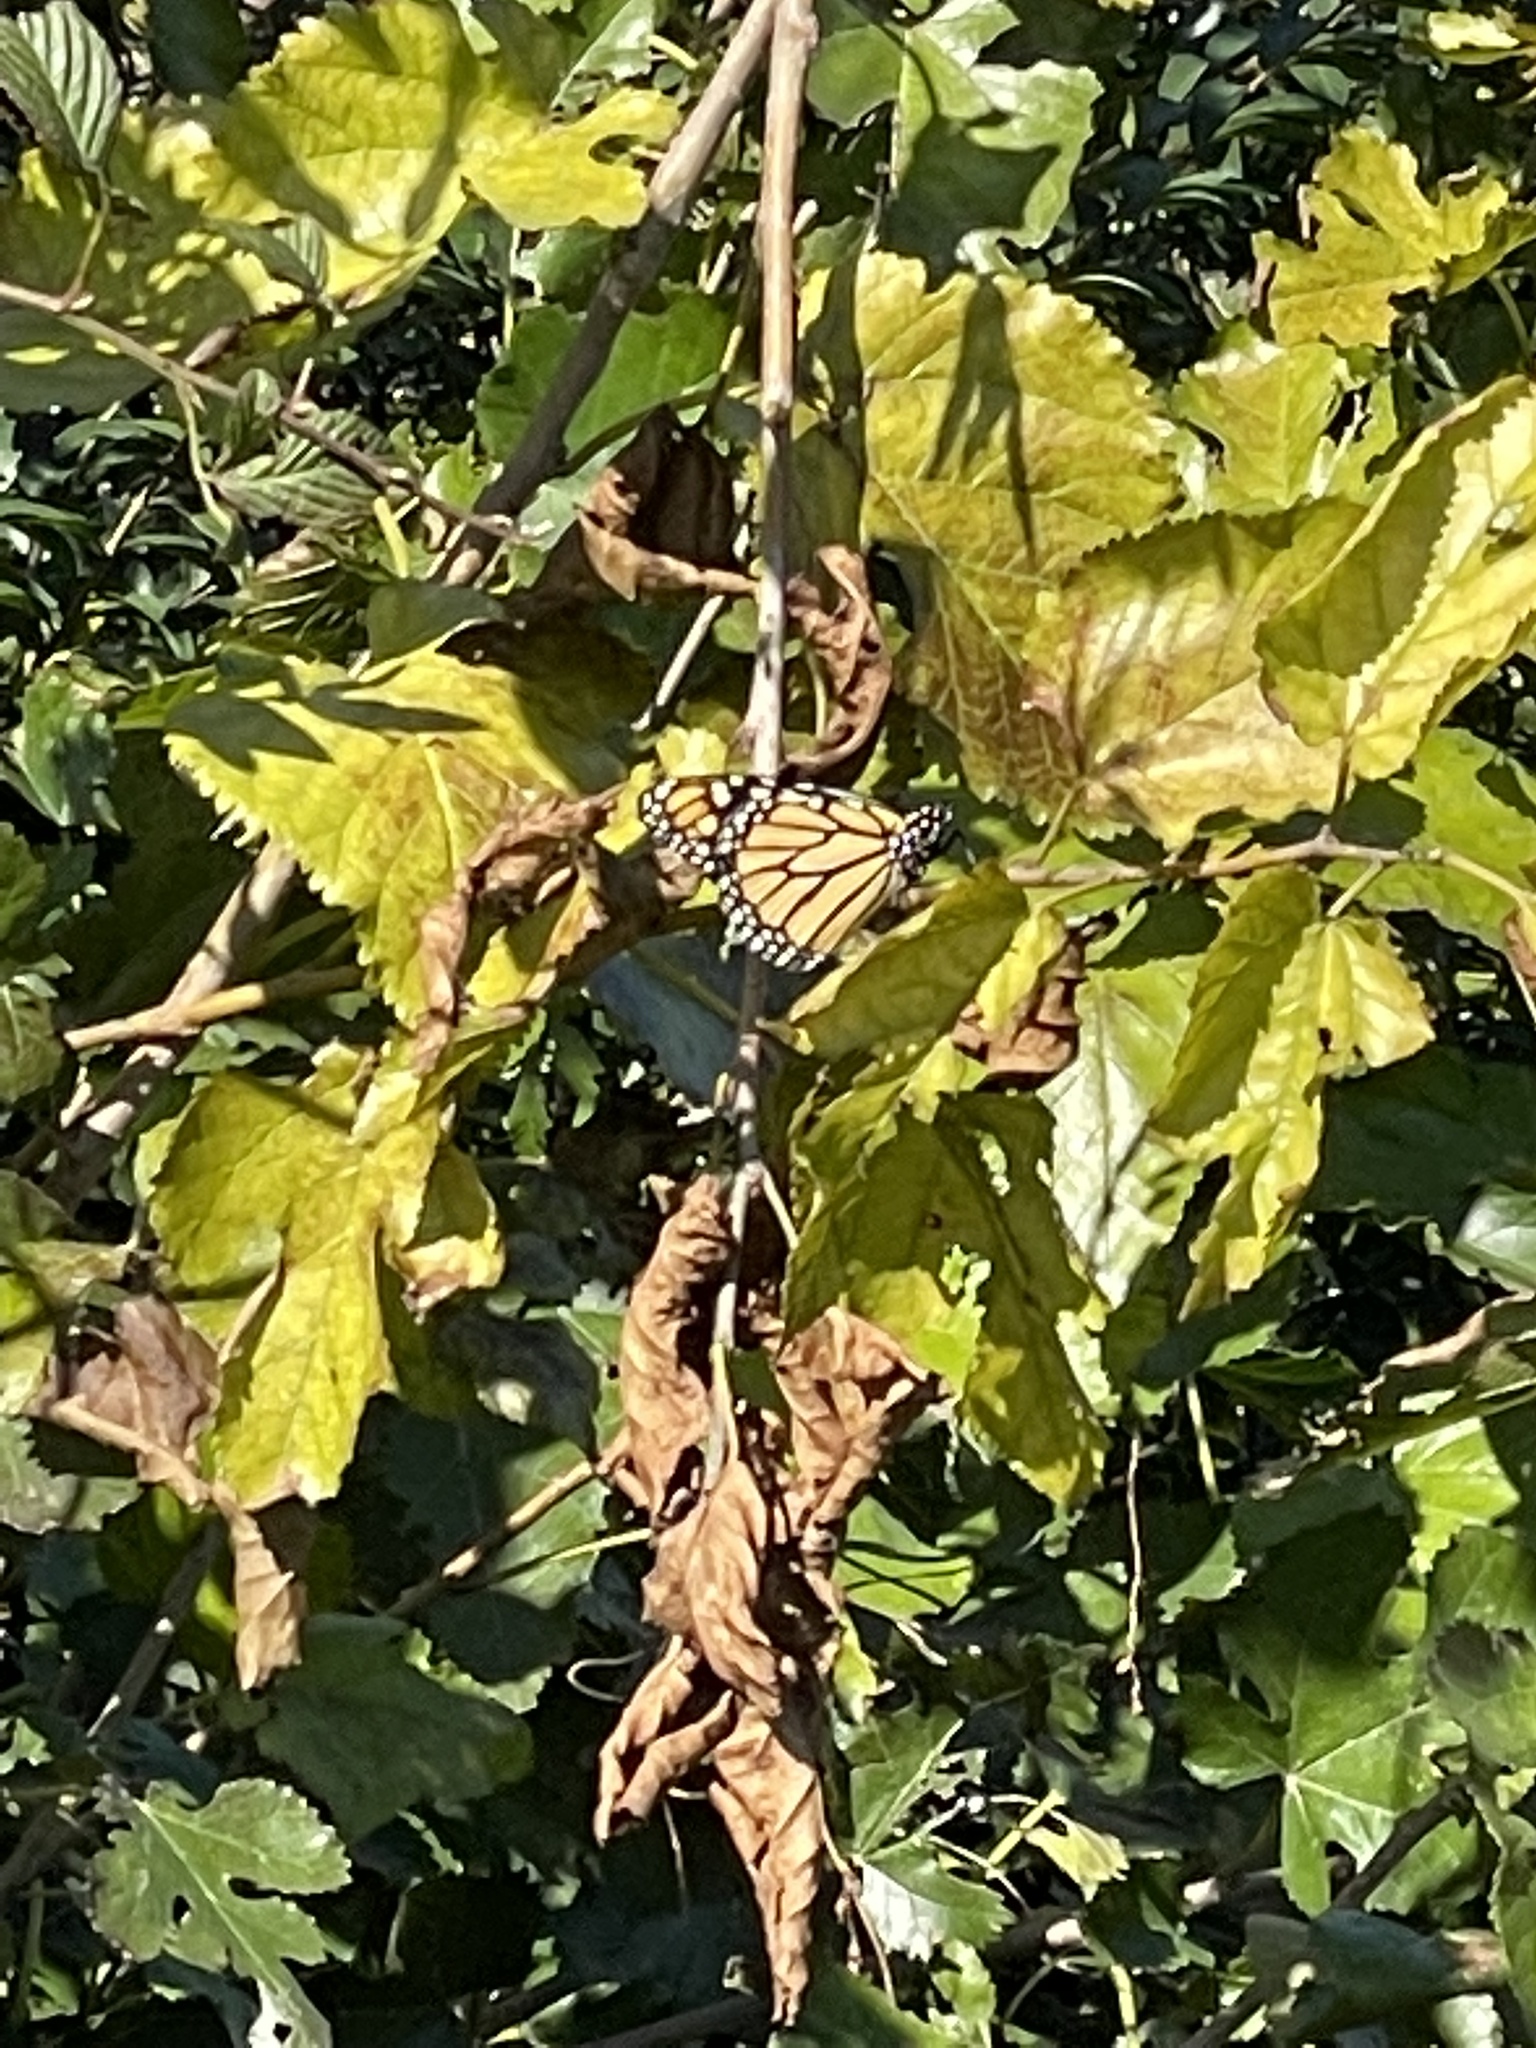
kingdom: Animalia
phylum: Arthropoda
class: Insecta
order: Lepidoptera
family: Nymphalidae
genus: Danaus
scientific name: Danaus plexippus
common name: Monarch
